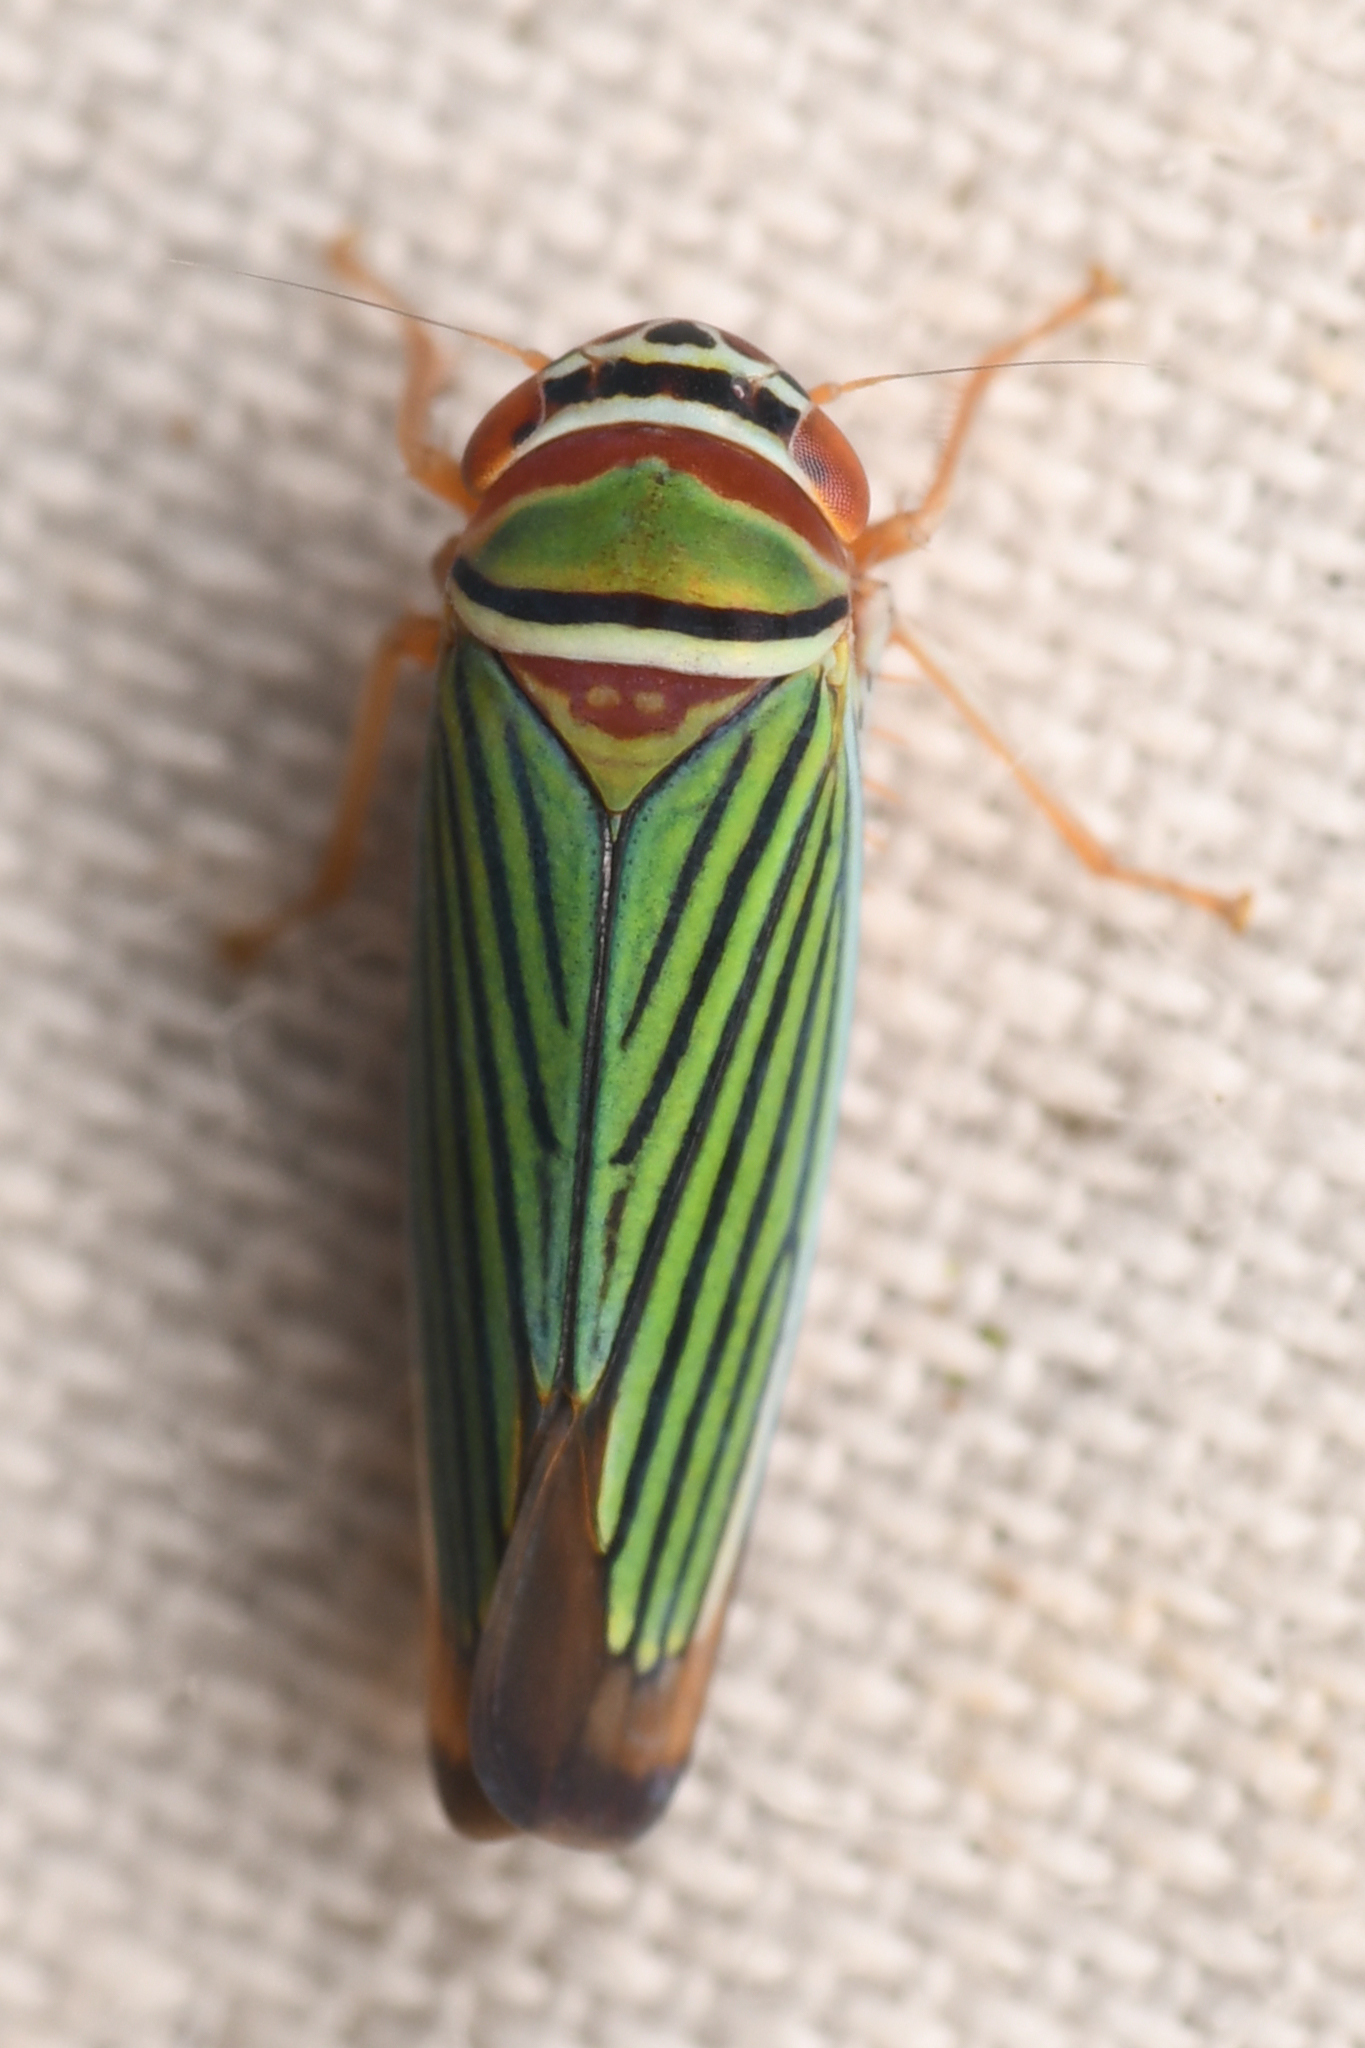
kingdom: Animalia
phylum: Arthropoda
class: Insecta
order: Hemiptera
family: Cicadellidae
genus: Tylozygus
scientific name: Tylozygus fuscolineellus
